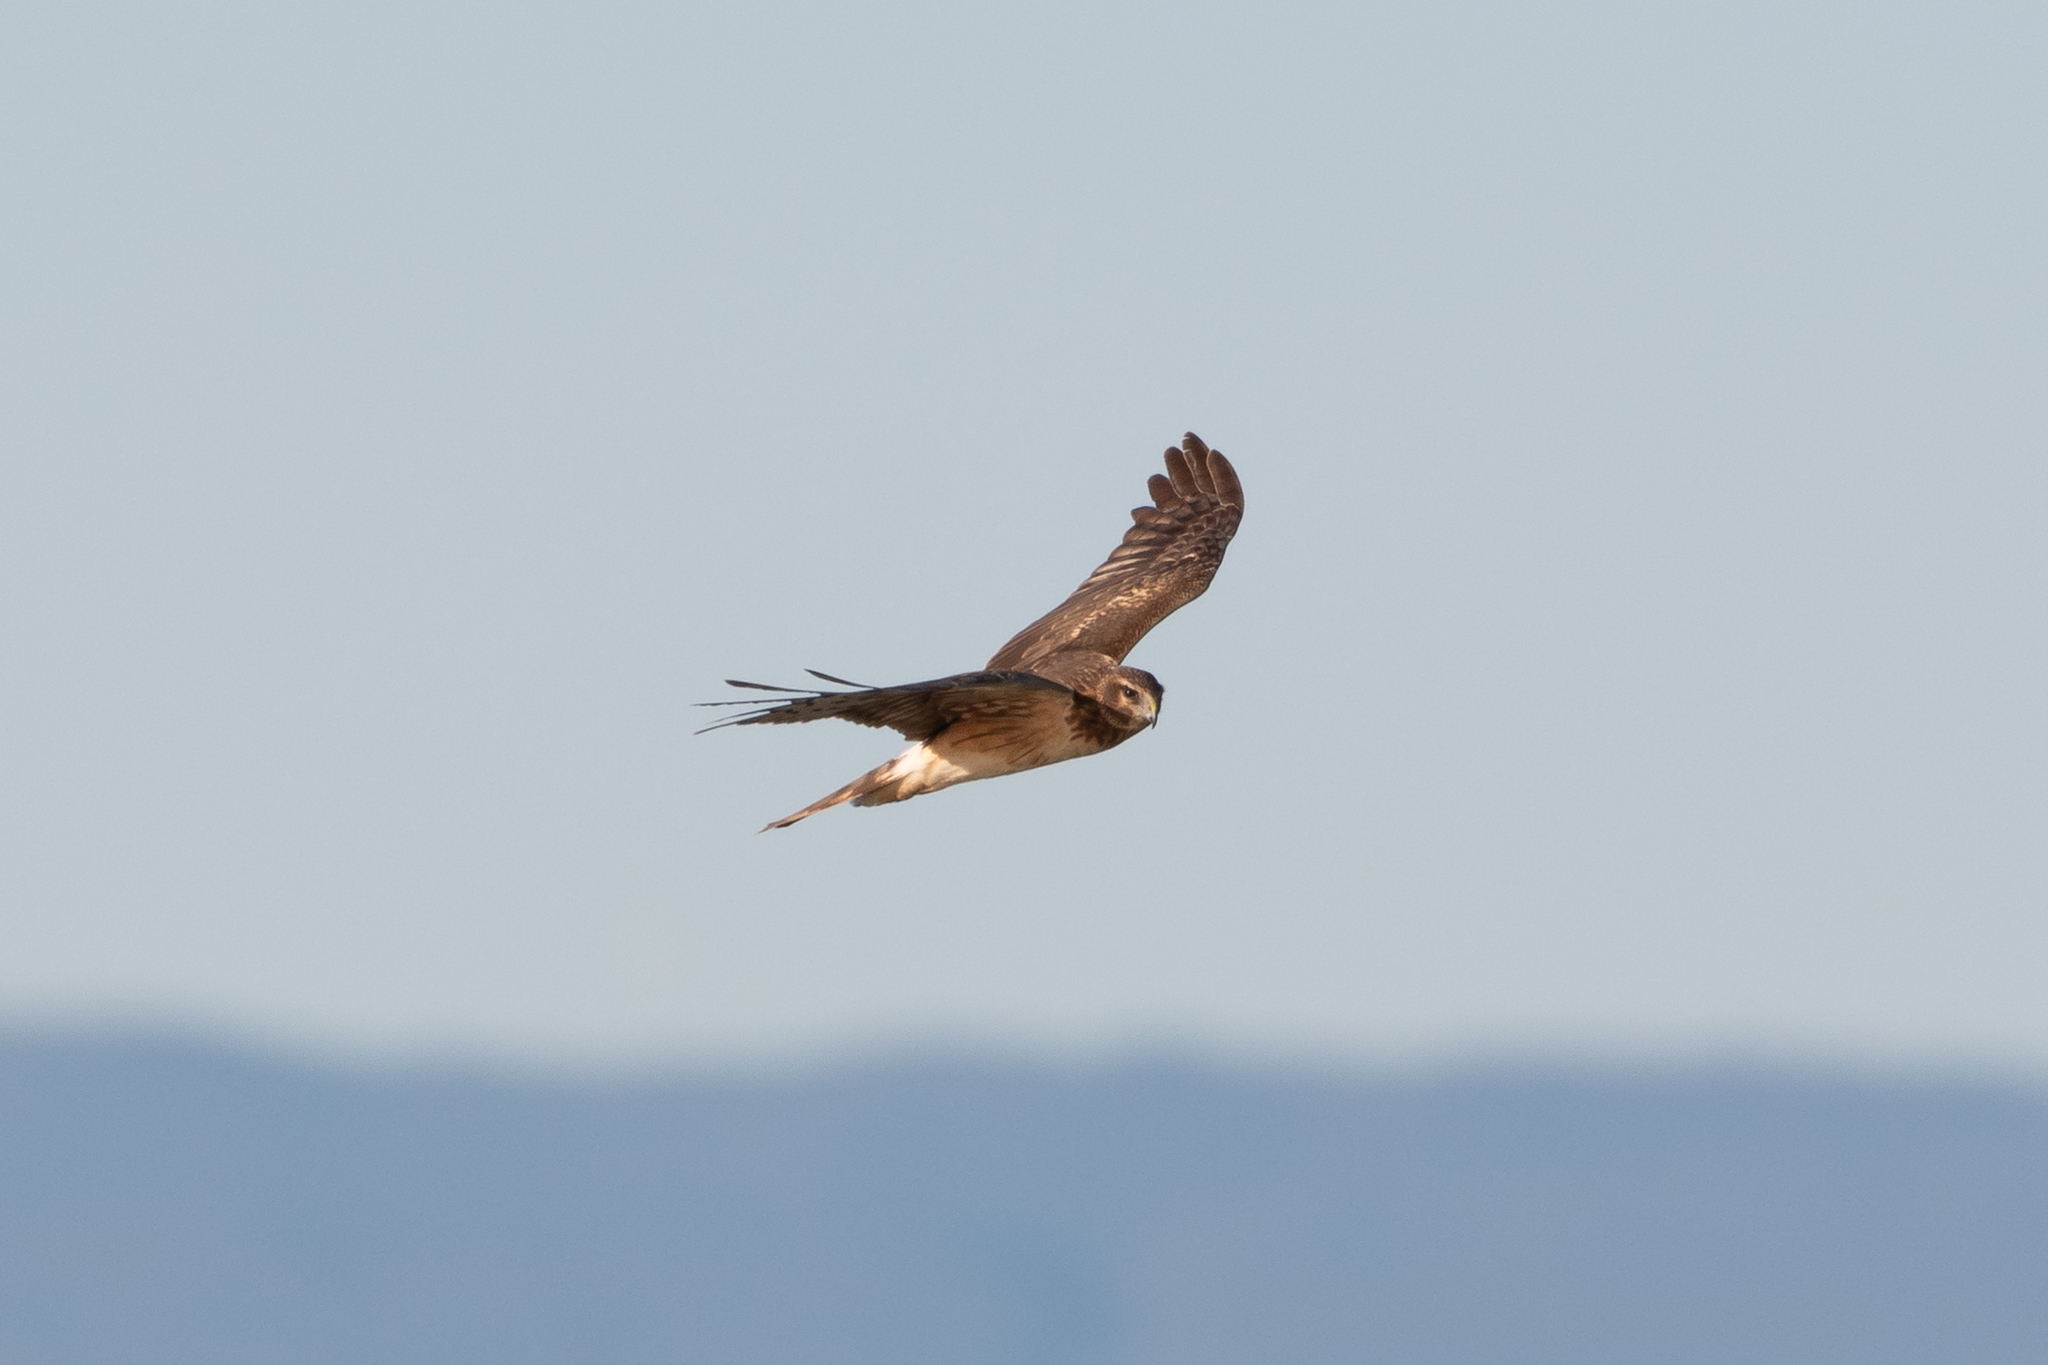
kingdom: Animalia
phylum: Chordata
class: Aves
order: Accipitriformes
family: Accipitridae
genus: Circus
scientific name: Circus cyaneus
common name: Hen harrier
